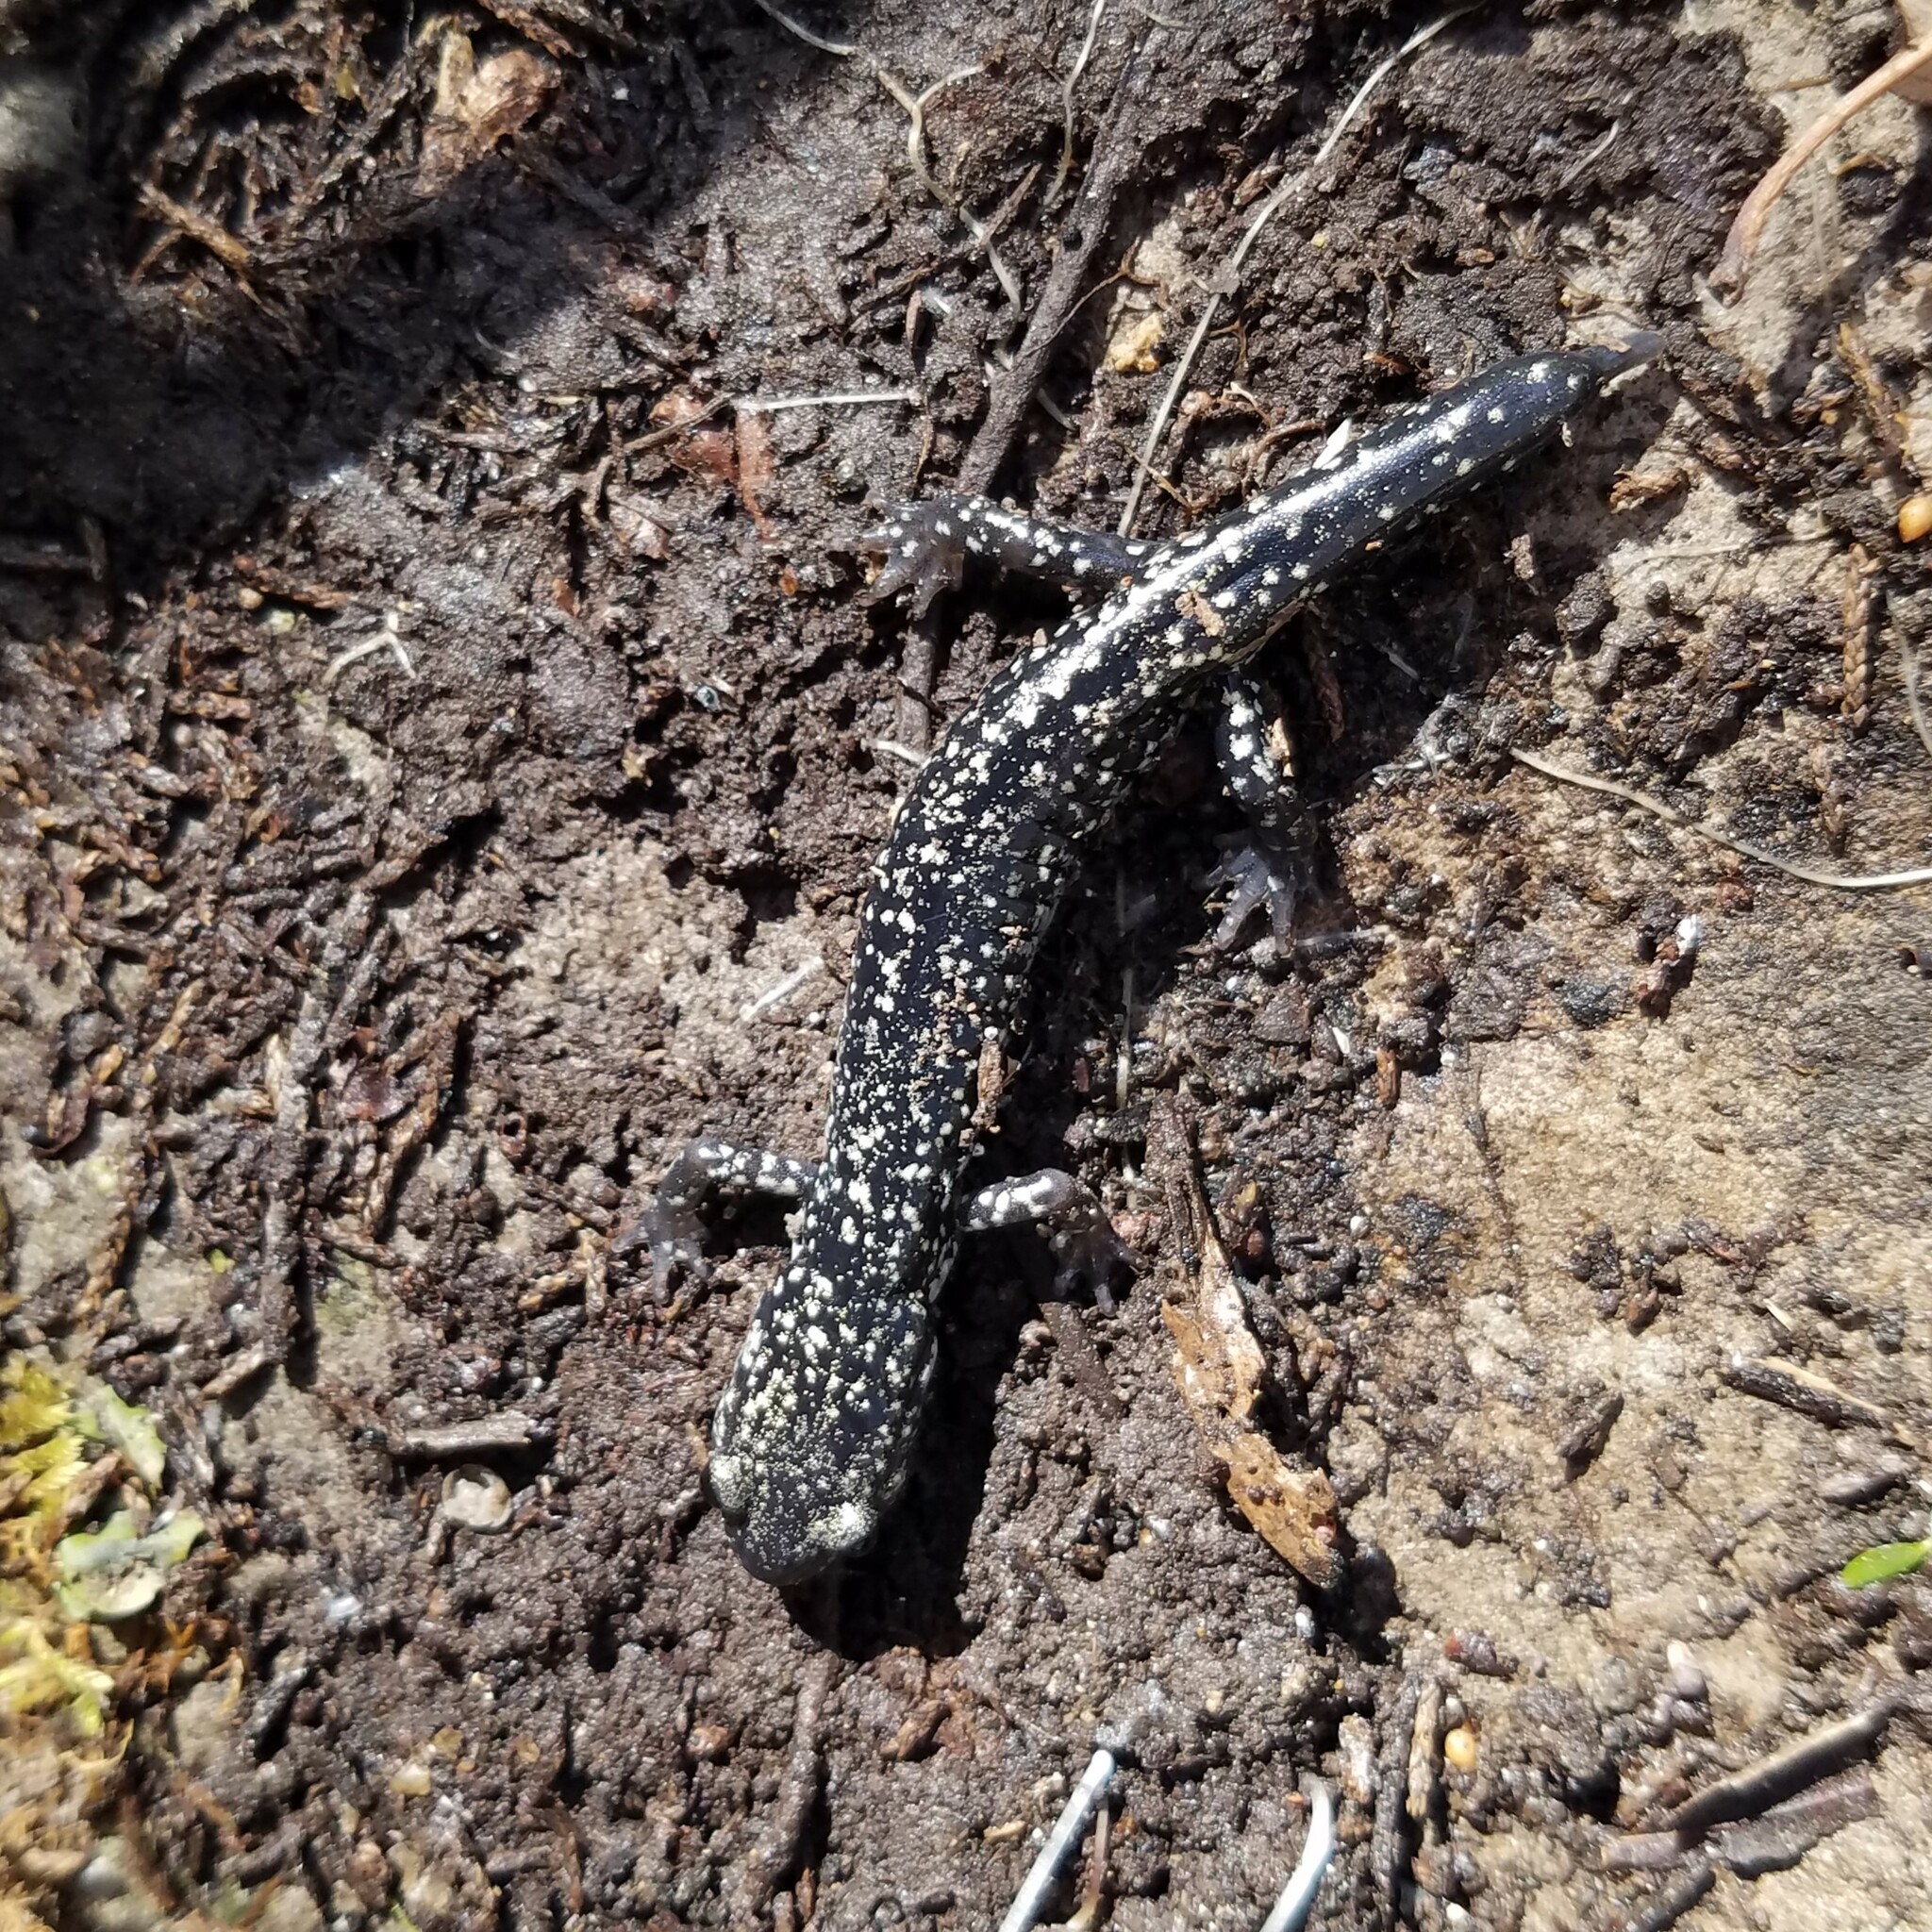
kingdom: Animalia
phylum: Chordata
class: Amphibia
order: Caudata
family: Plethodontidae
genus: Plethodon
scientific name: Plethodon glutinosus
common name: Northern slimy salamander
